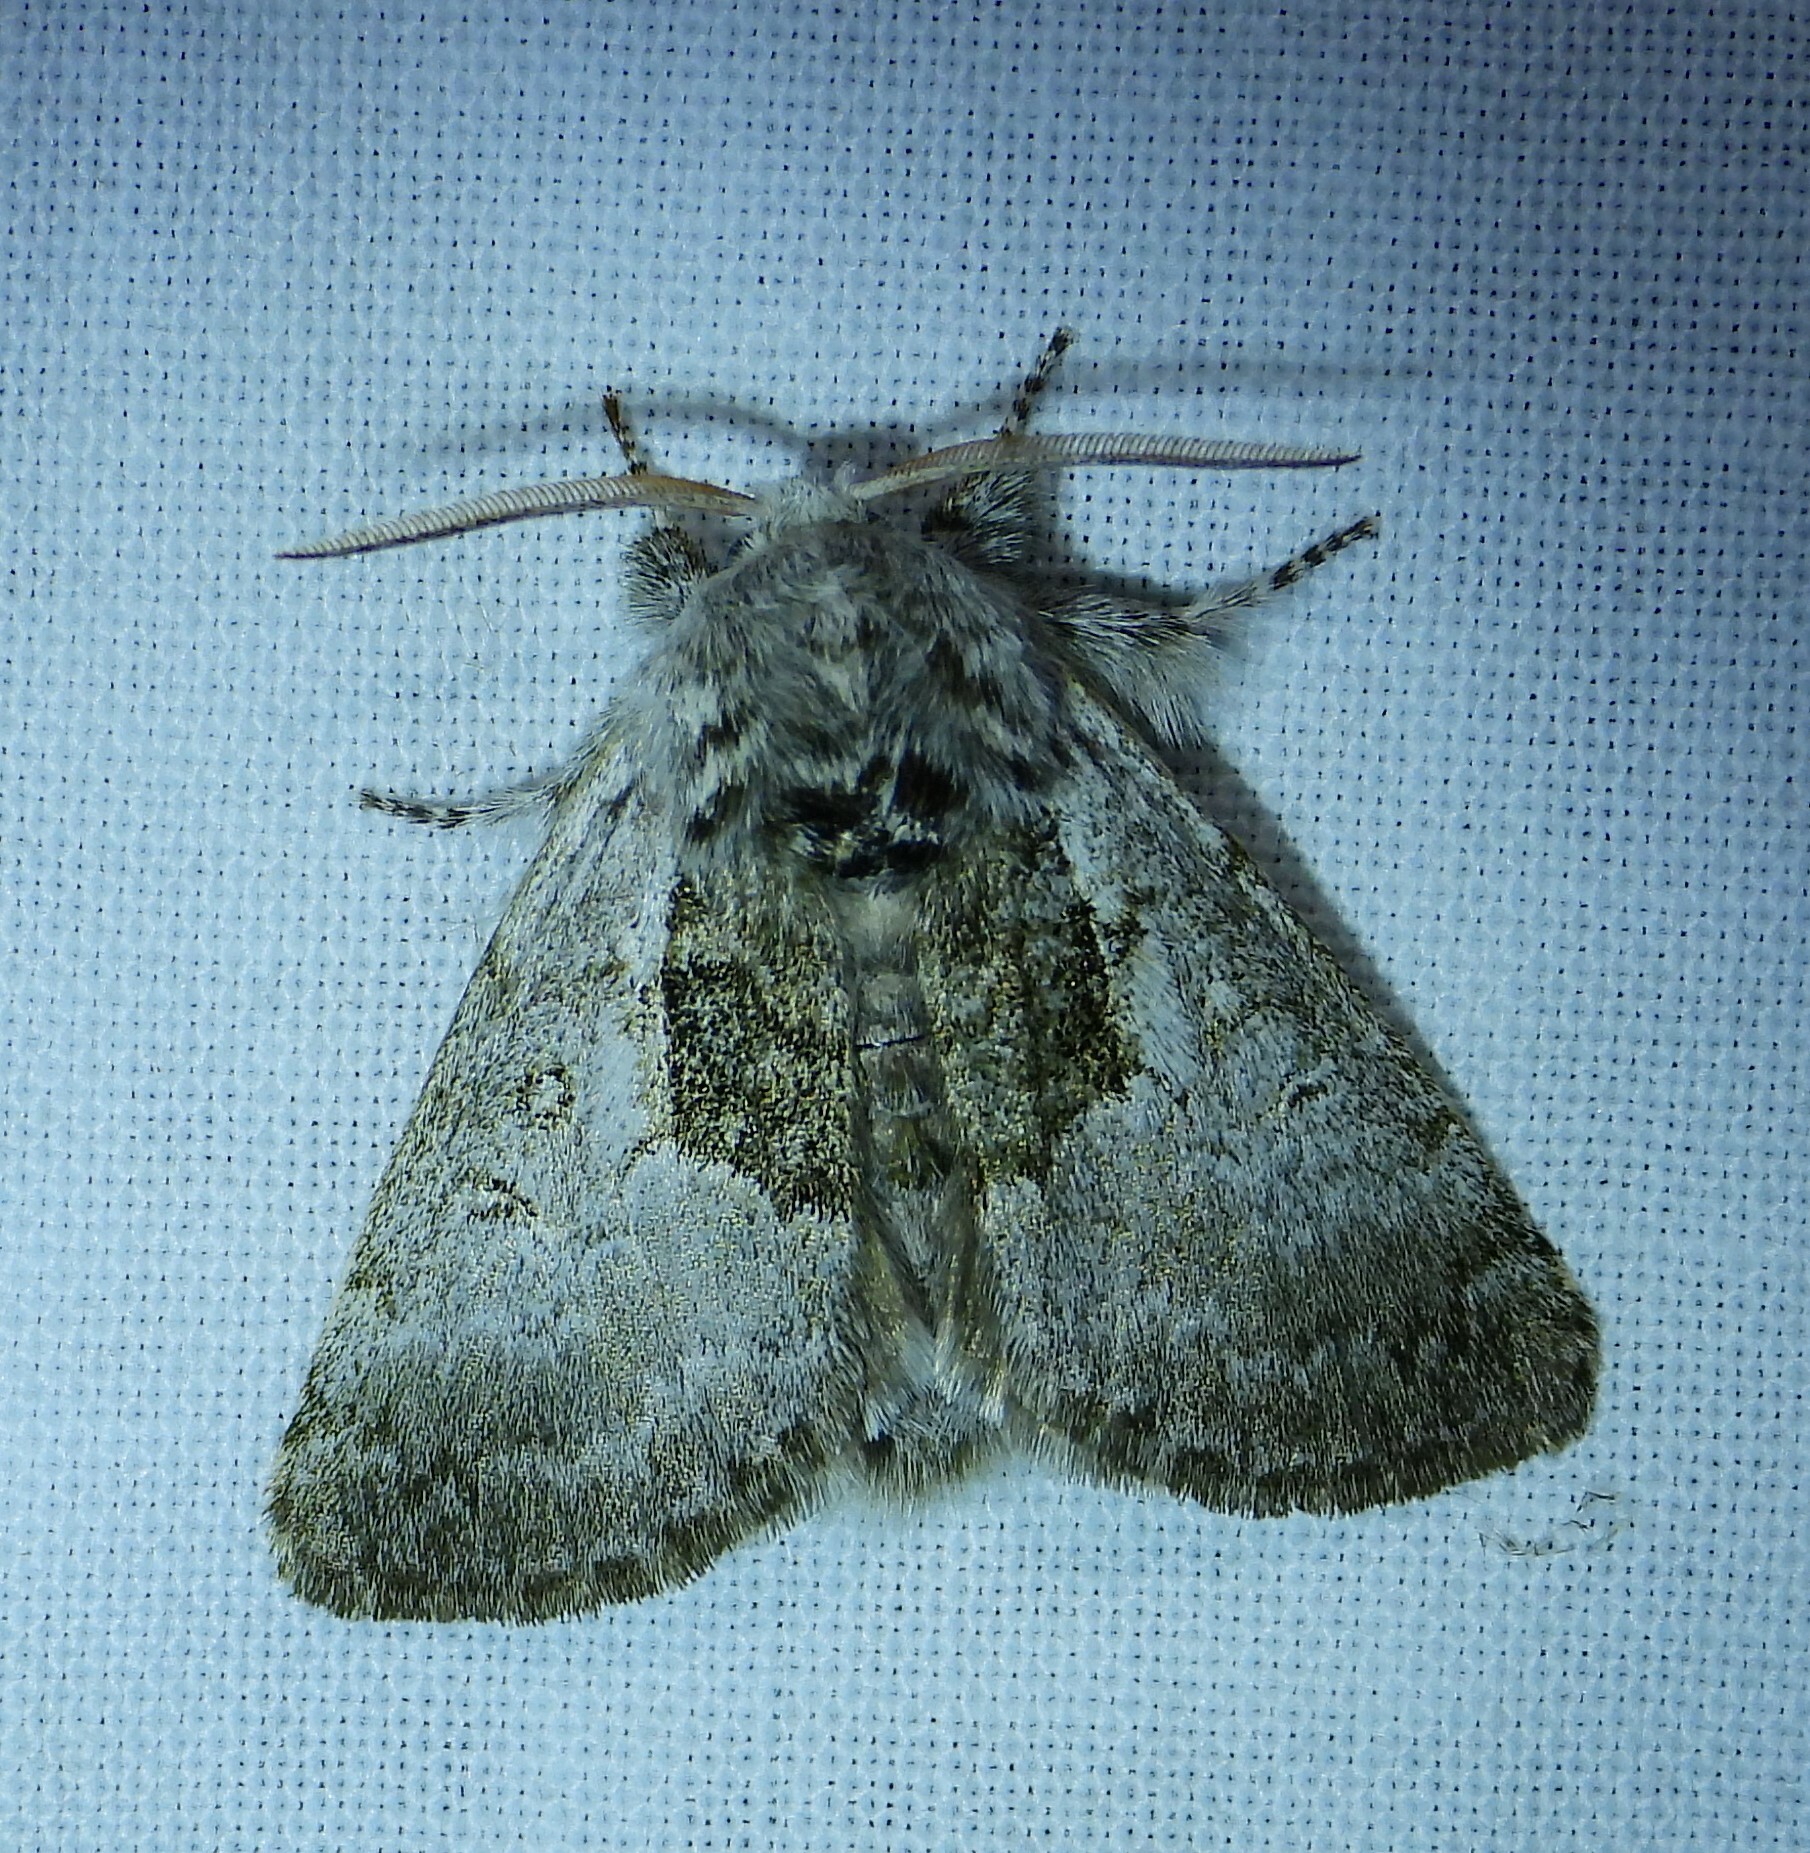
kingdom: Animalia
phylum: Arthropoda
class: Insecta
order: Lepidoptera
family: Noctuidae
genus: Colocasia
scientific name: Colocasia flavicornis
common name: Saddled yellowhorn
